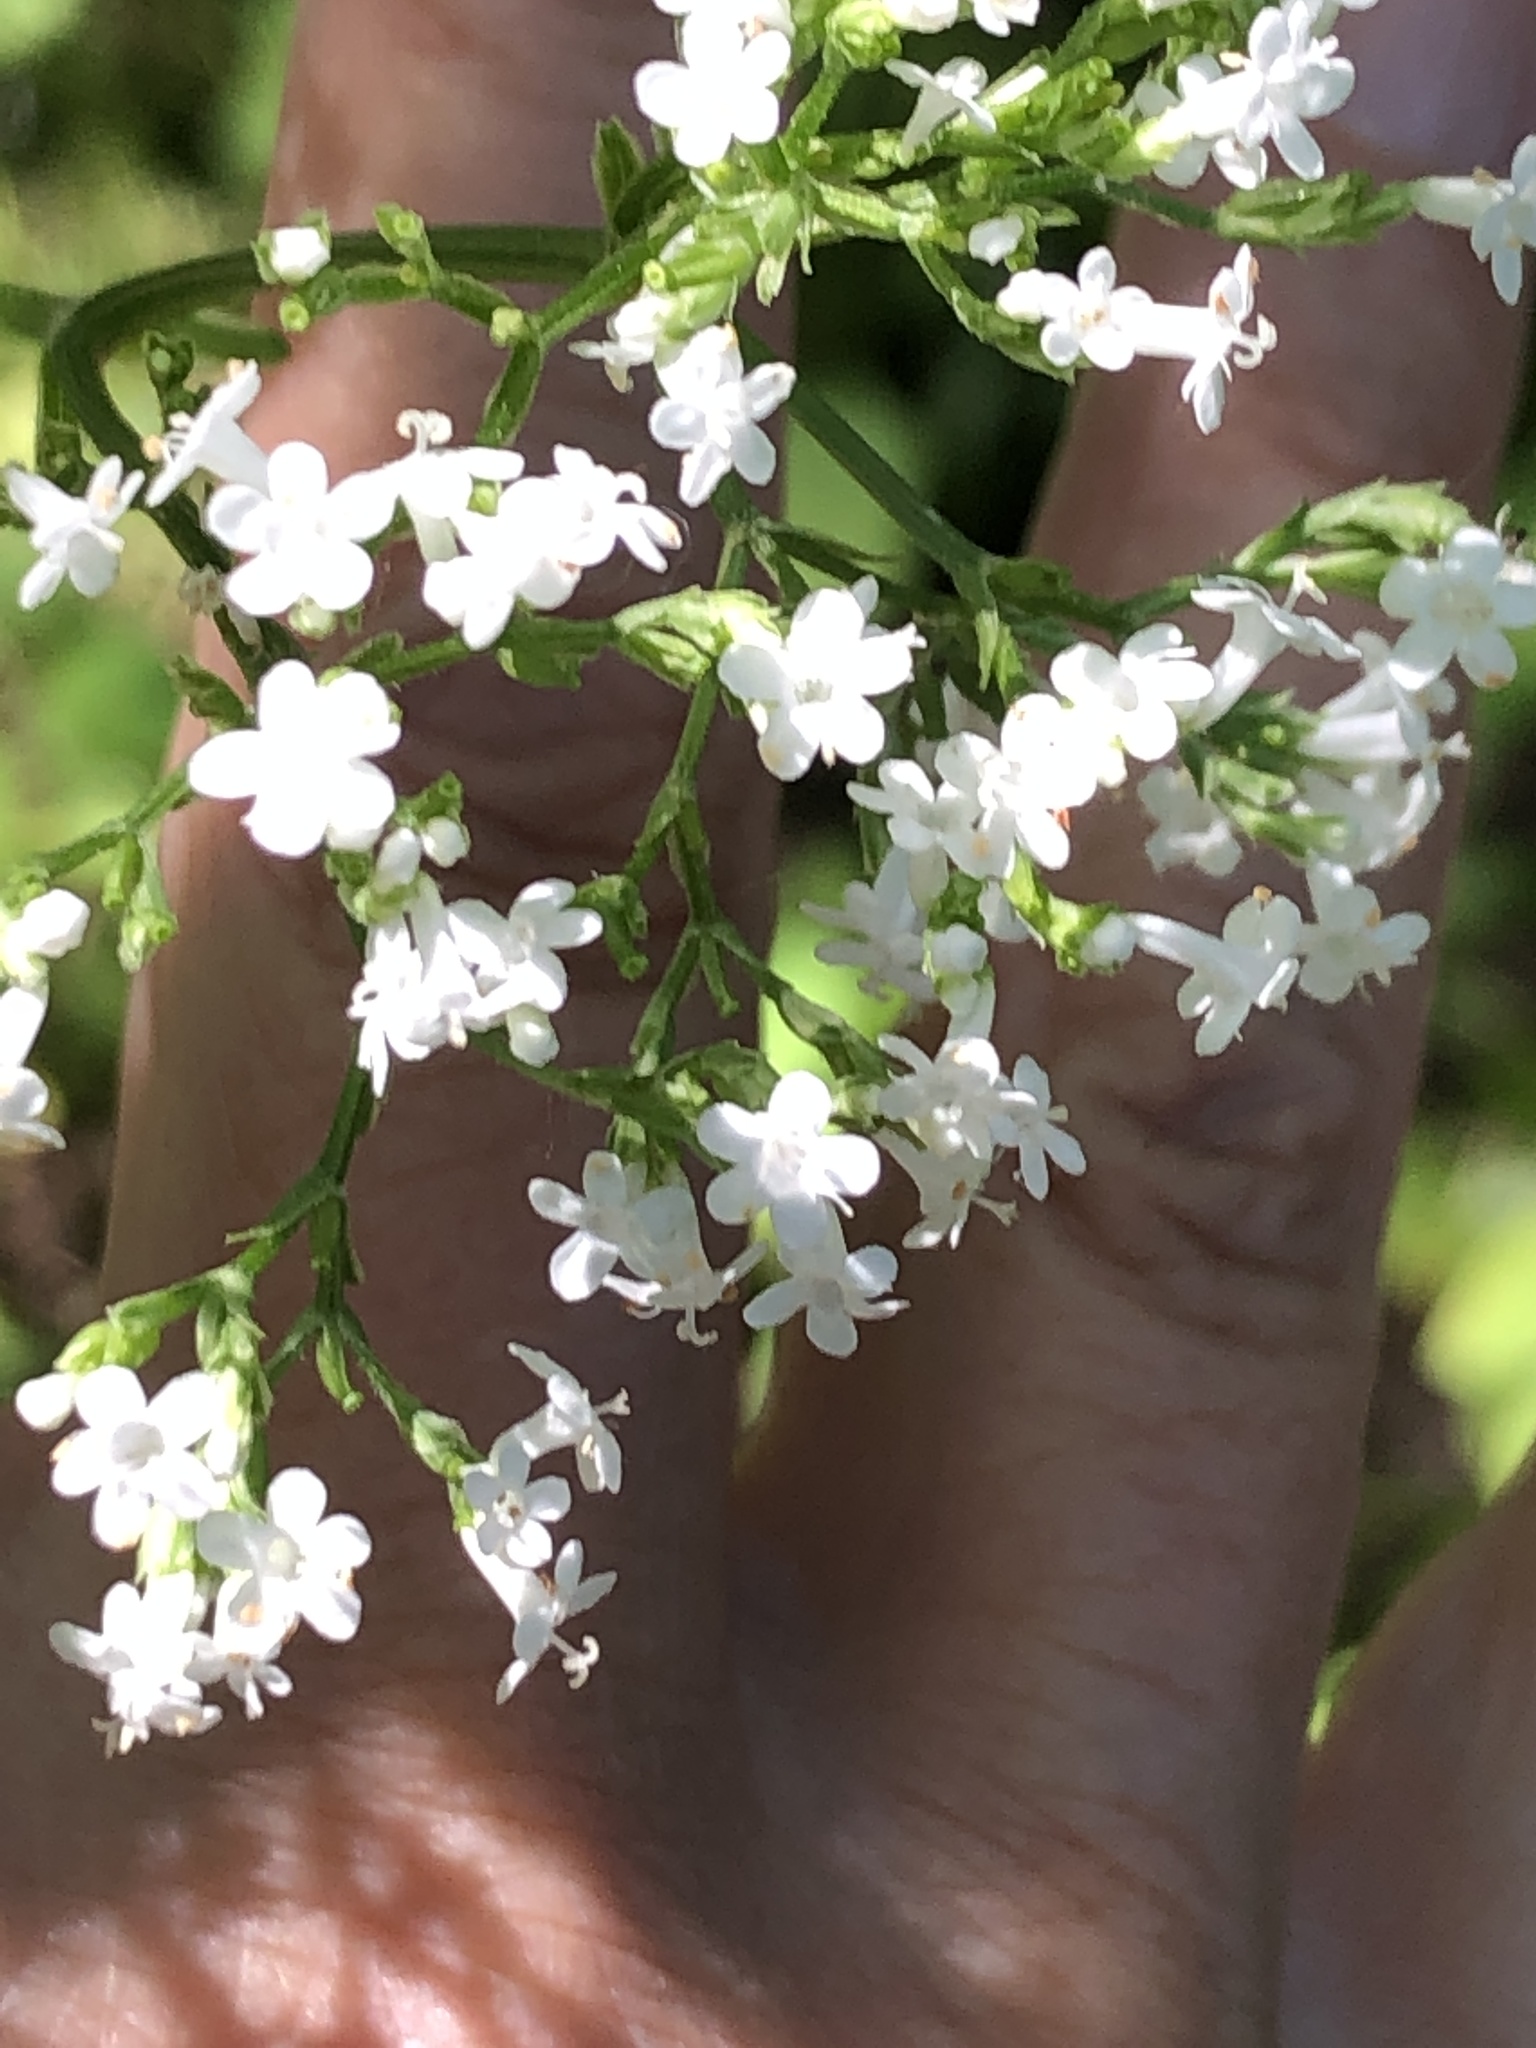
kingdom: Plantae
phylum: Tracheophyta
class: Magnoliopsida
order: Dipsacales
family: Caprifoliaceae
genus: Valeriana
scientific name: Valeriana officinalis
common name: Common valerian
